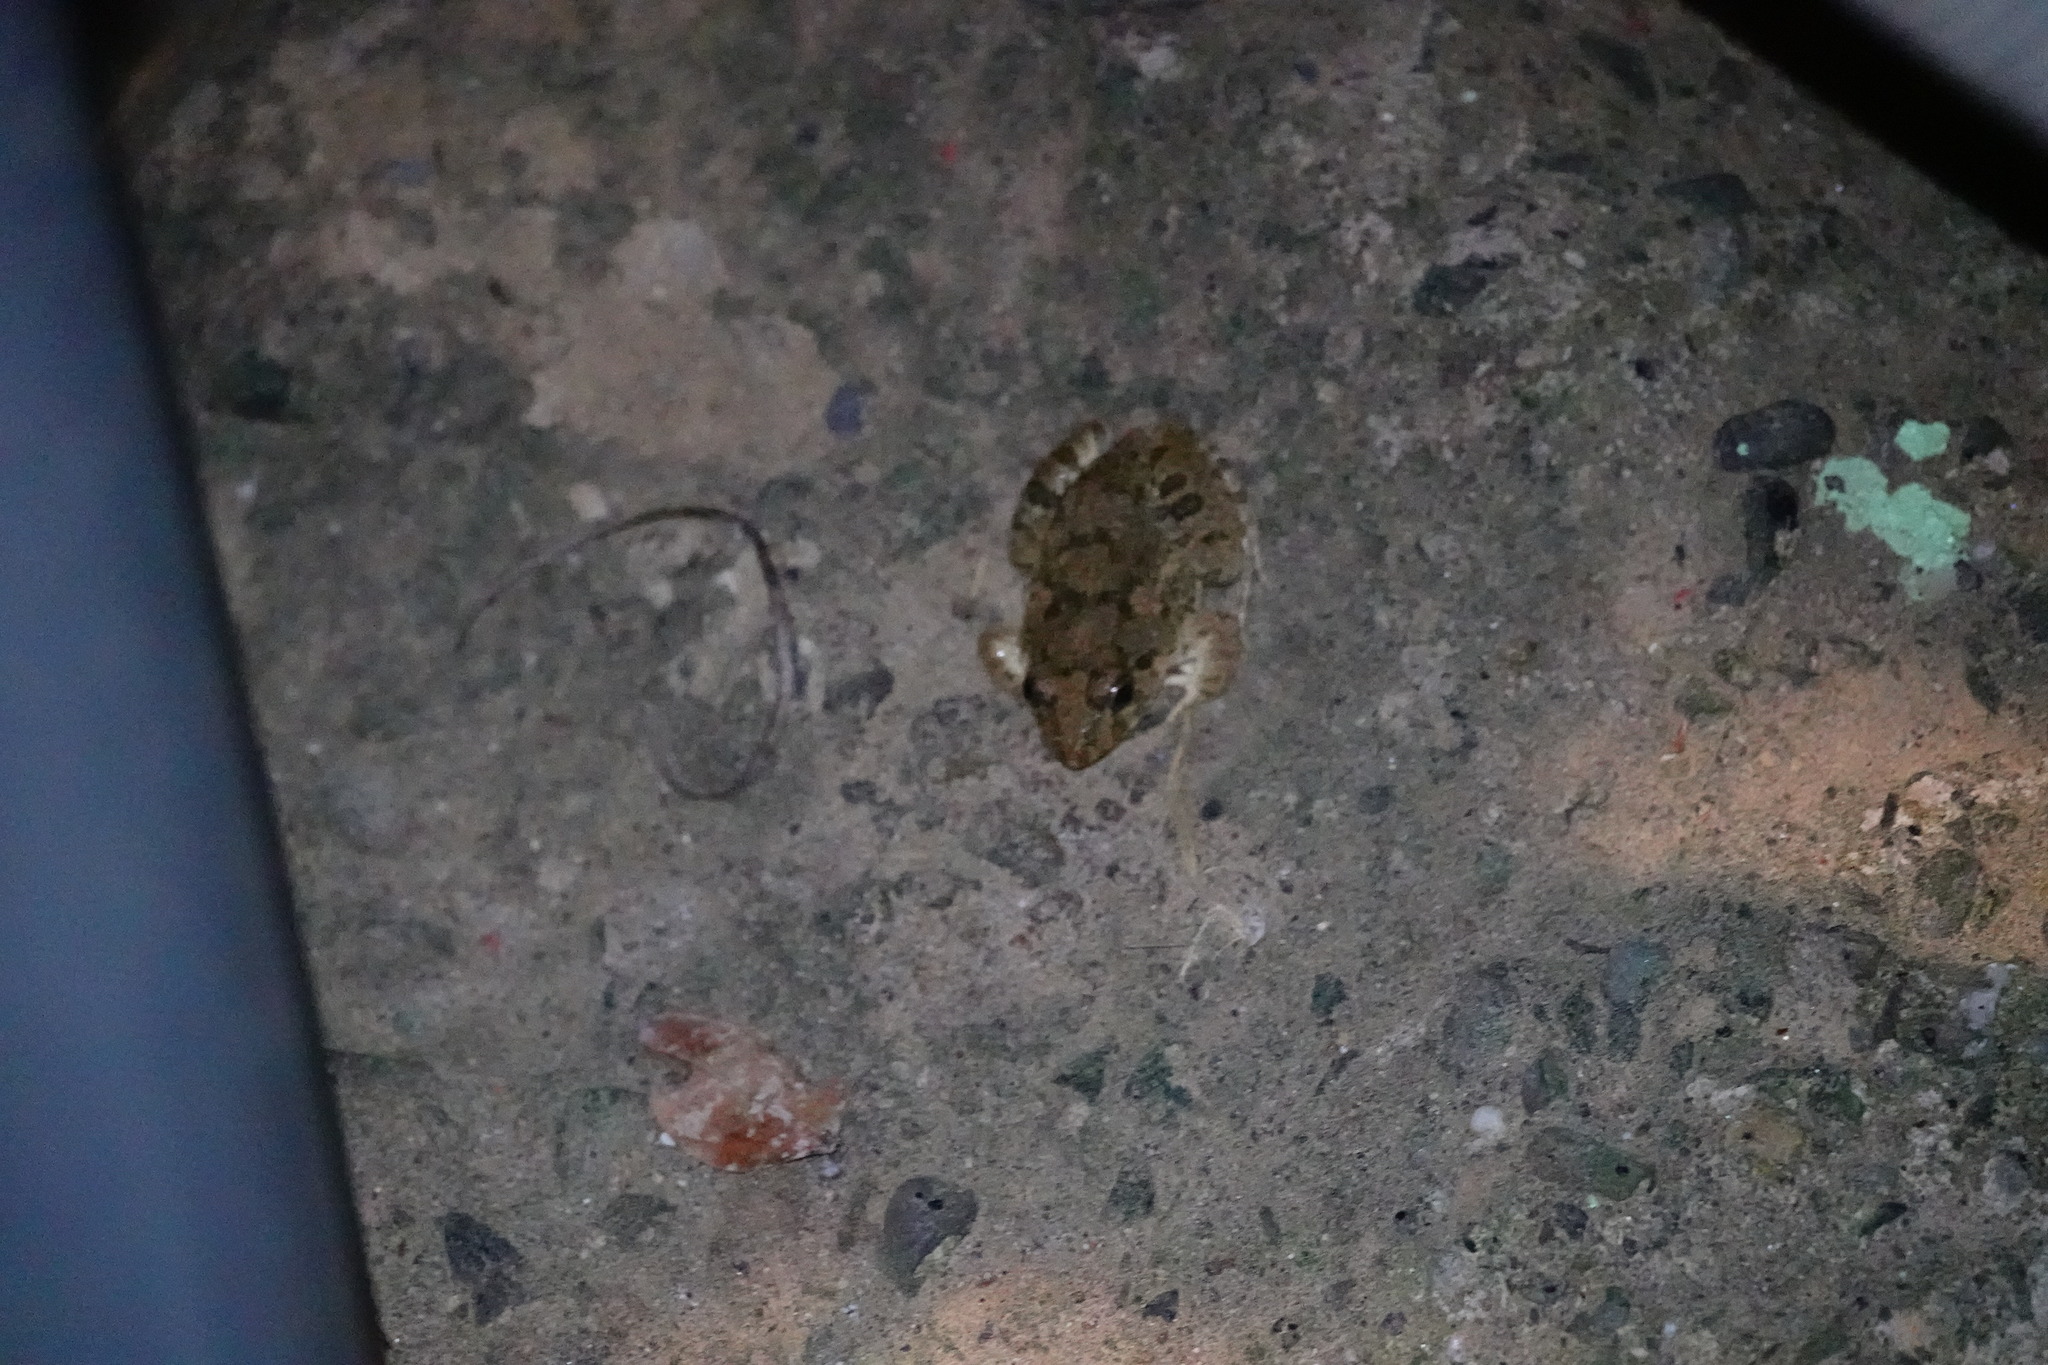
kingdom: Animalia
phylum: Chordata
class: Amphibia
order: Anura
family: Dicroglossidae
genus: Fejervarya
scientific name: Fejervarya limnocharis
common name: Asian grass frog/common pond frog/field frog/grass frog/indian rice frog
